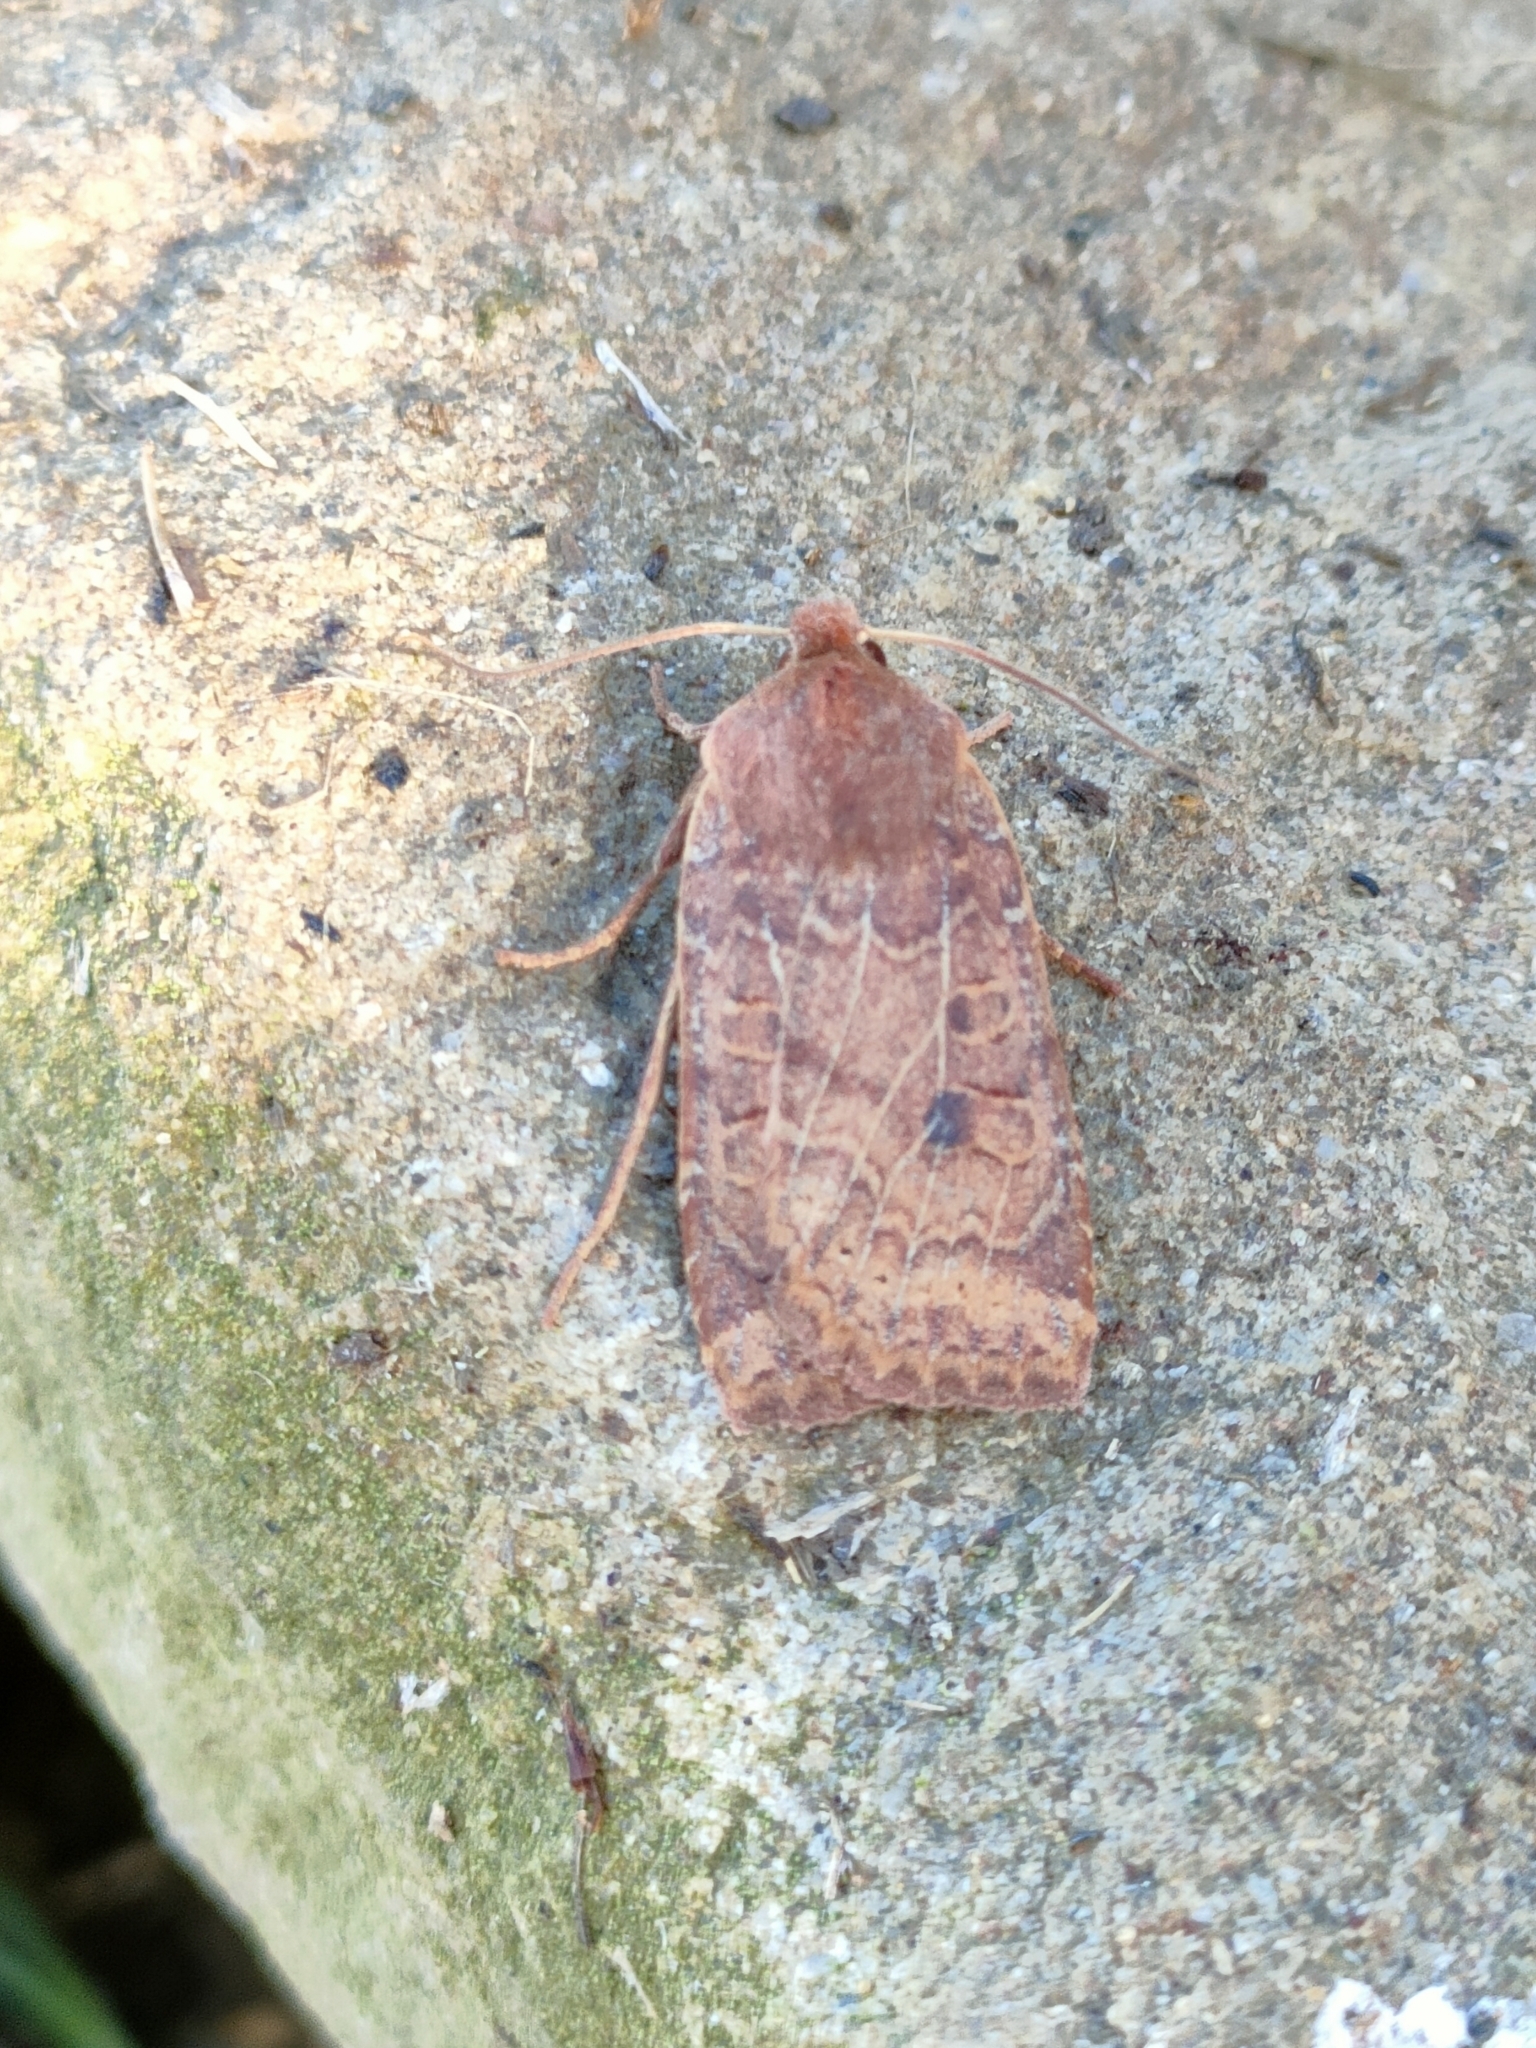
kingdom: Animalia
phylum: Arthropoda
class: Insecta
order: Lepidoptera
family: Noctuidae
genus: Conistra
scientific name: Conistra vaccinii
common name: Chestnut
